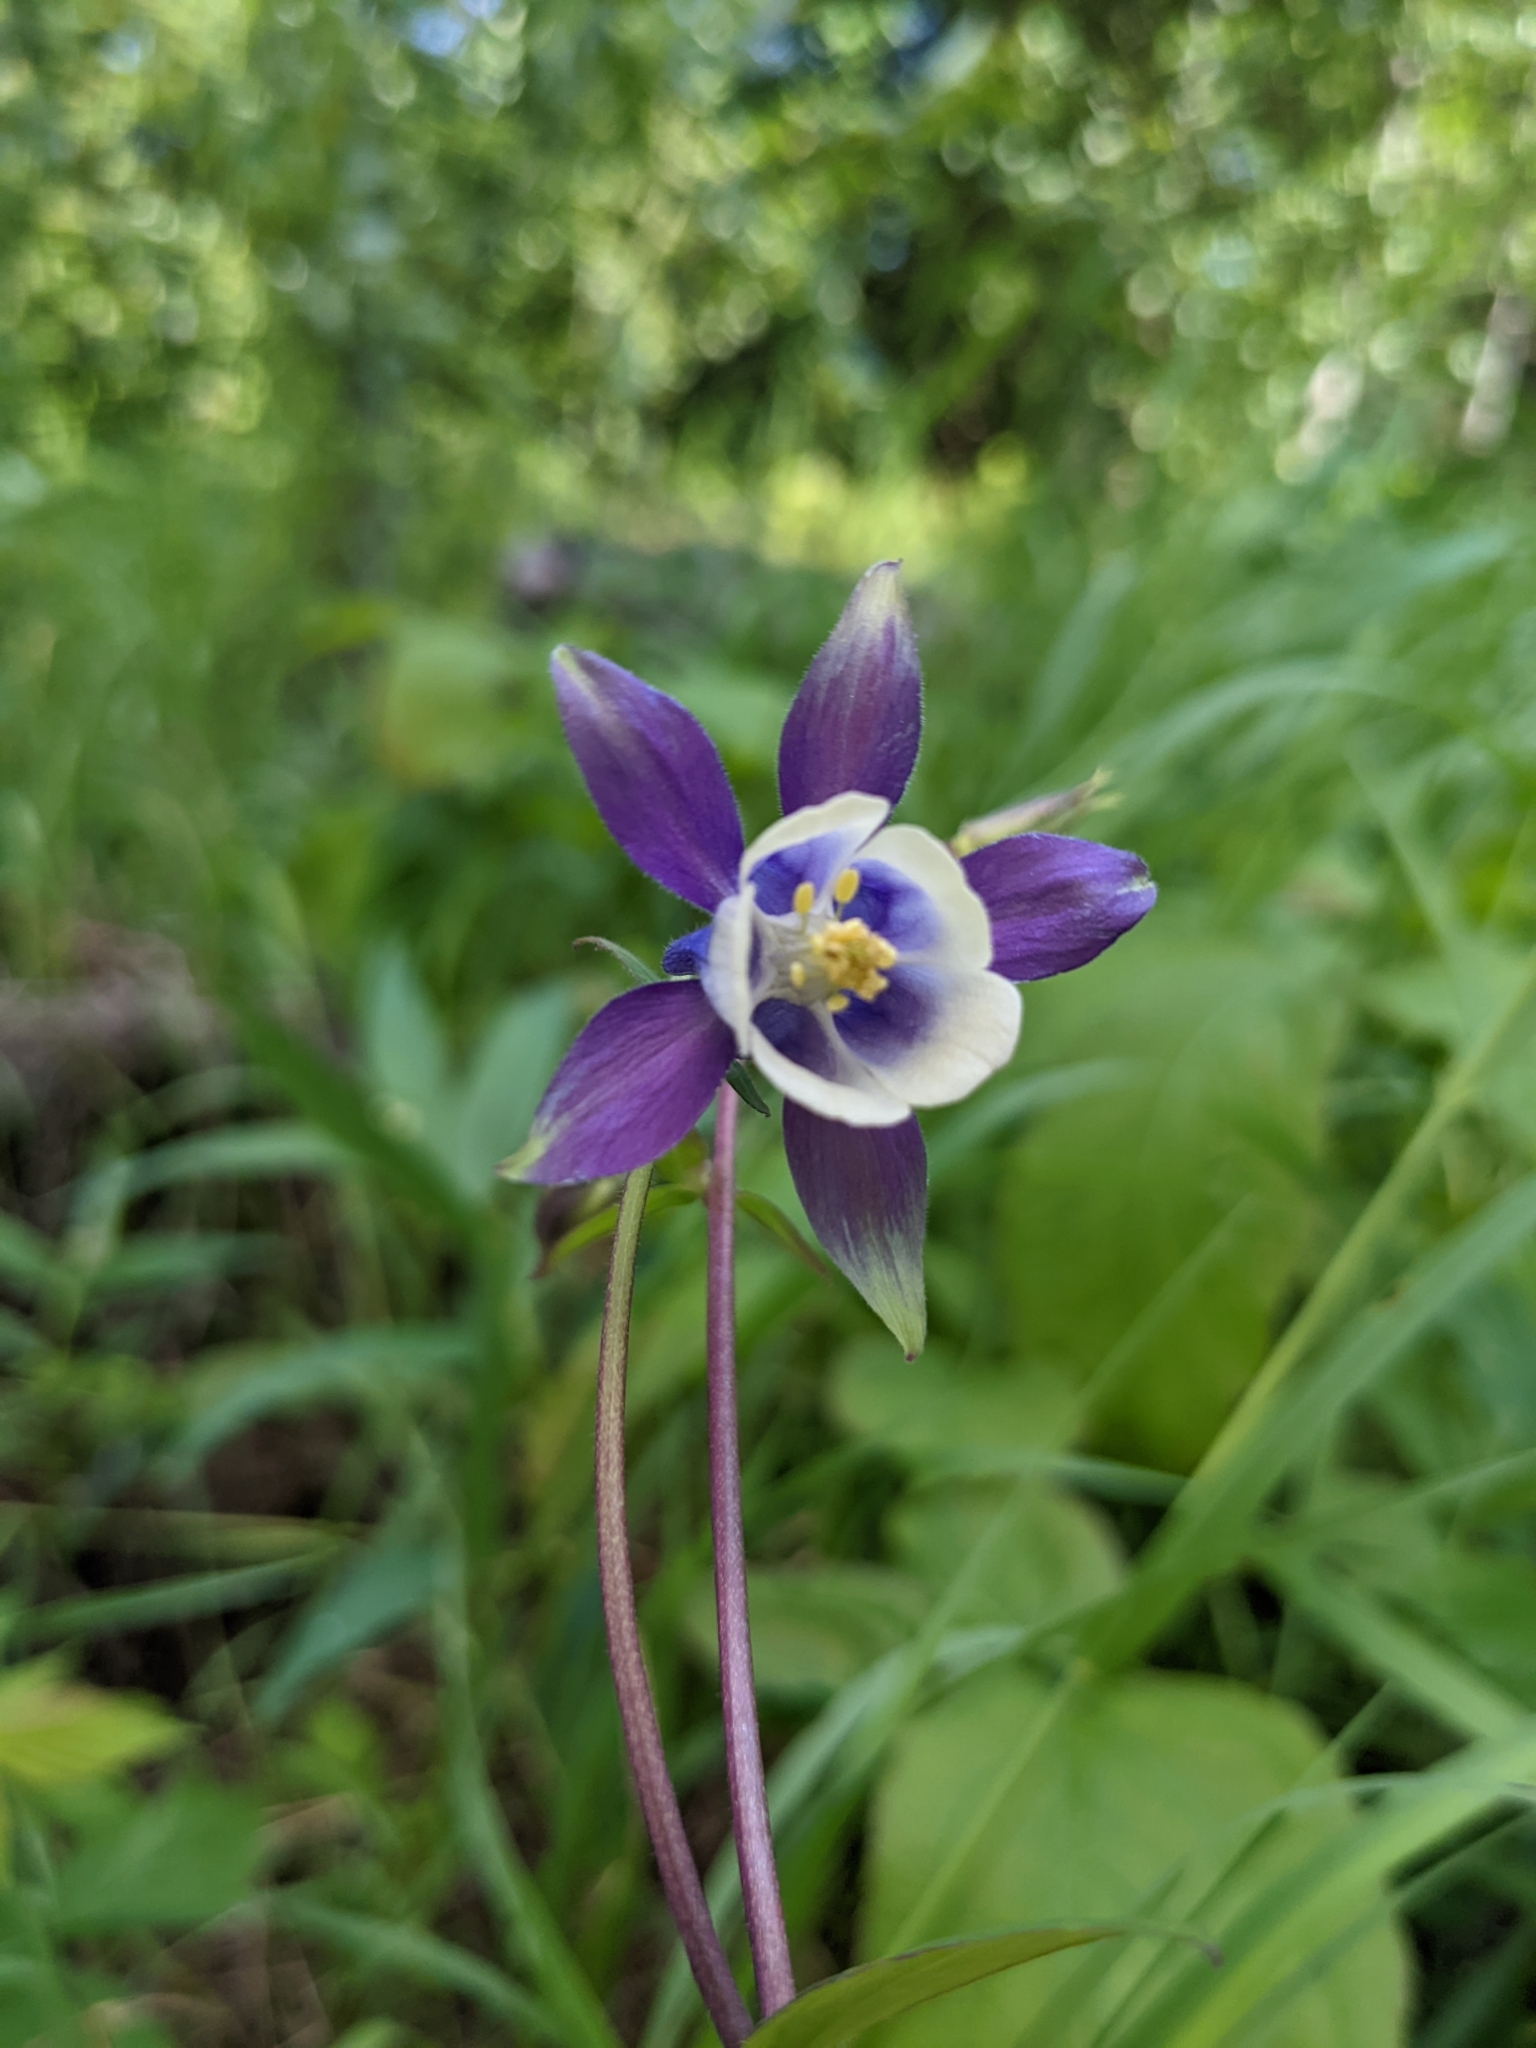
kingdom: Plantae
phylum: Tracheophyta
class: Magnoliopsida
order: Ranunculales
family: Ranunculaceae
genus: Aquilegia
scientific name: Aquilegia brevistyla
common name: Yukon columbine
